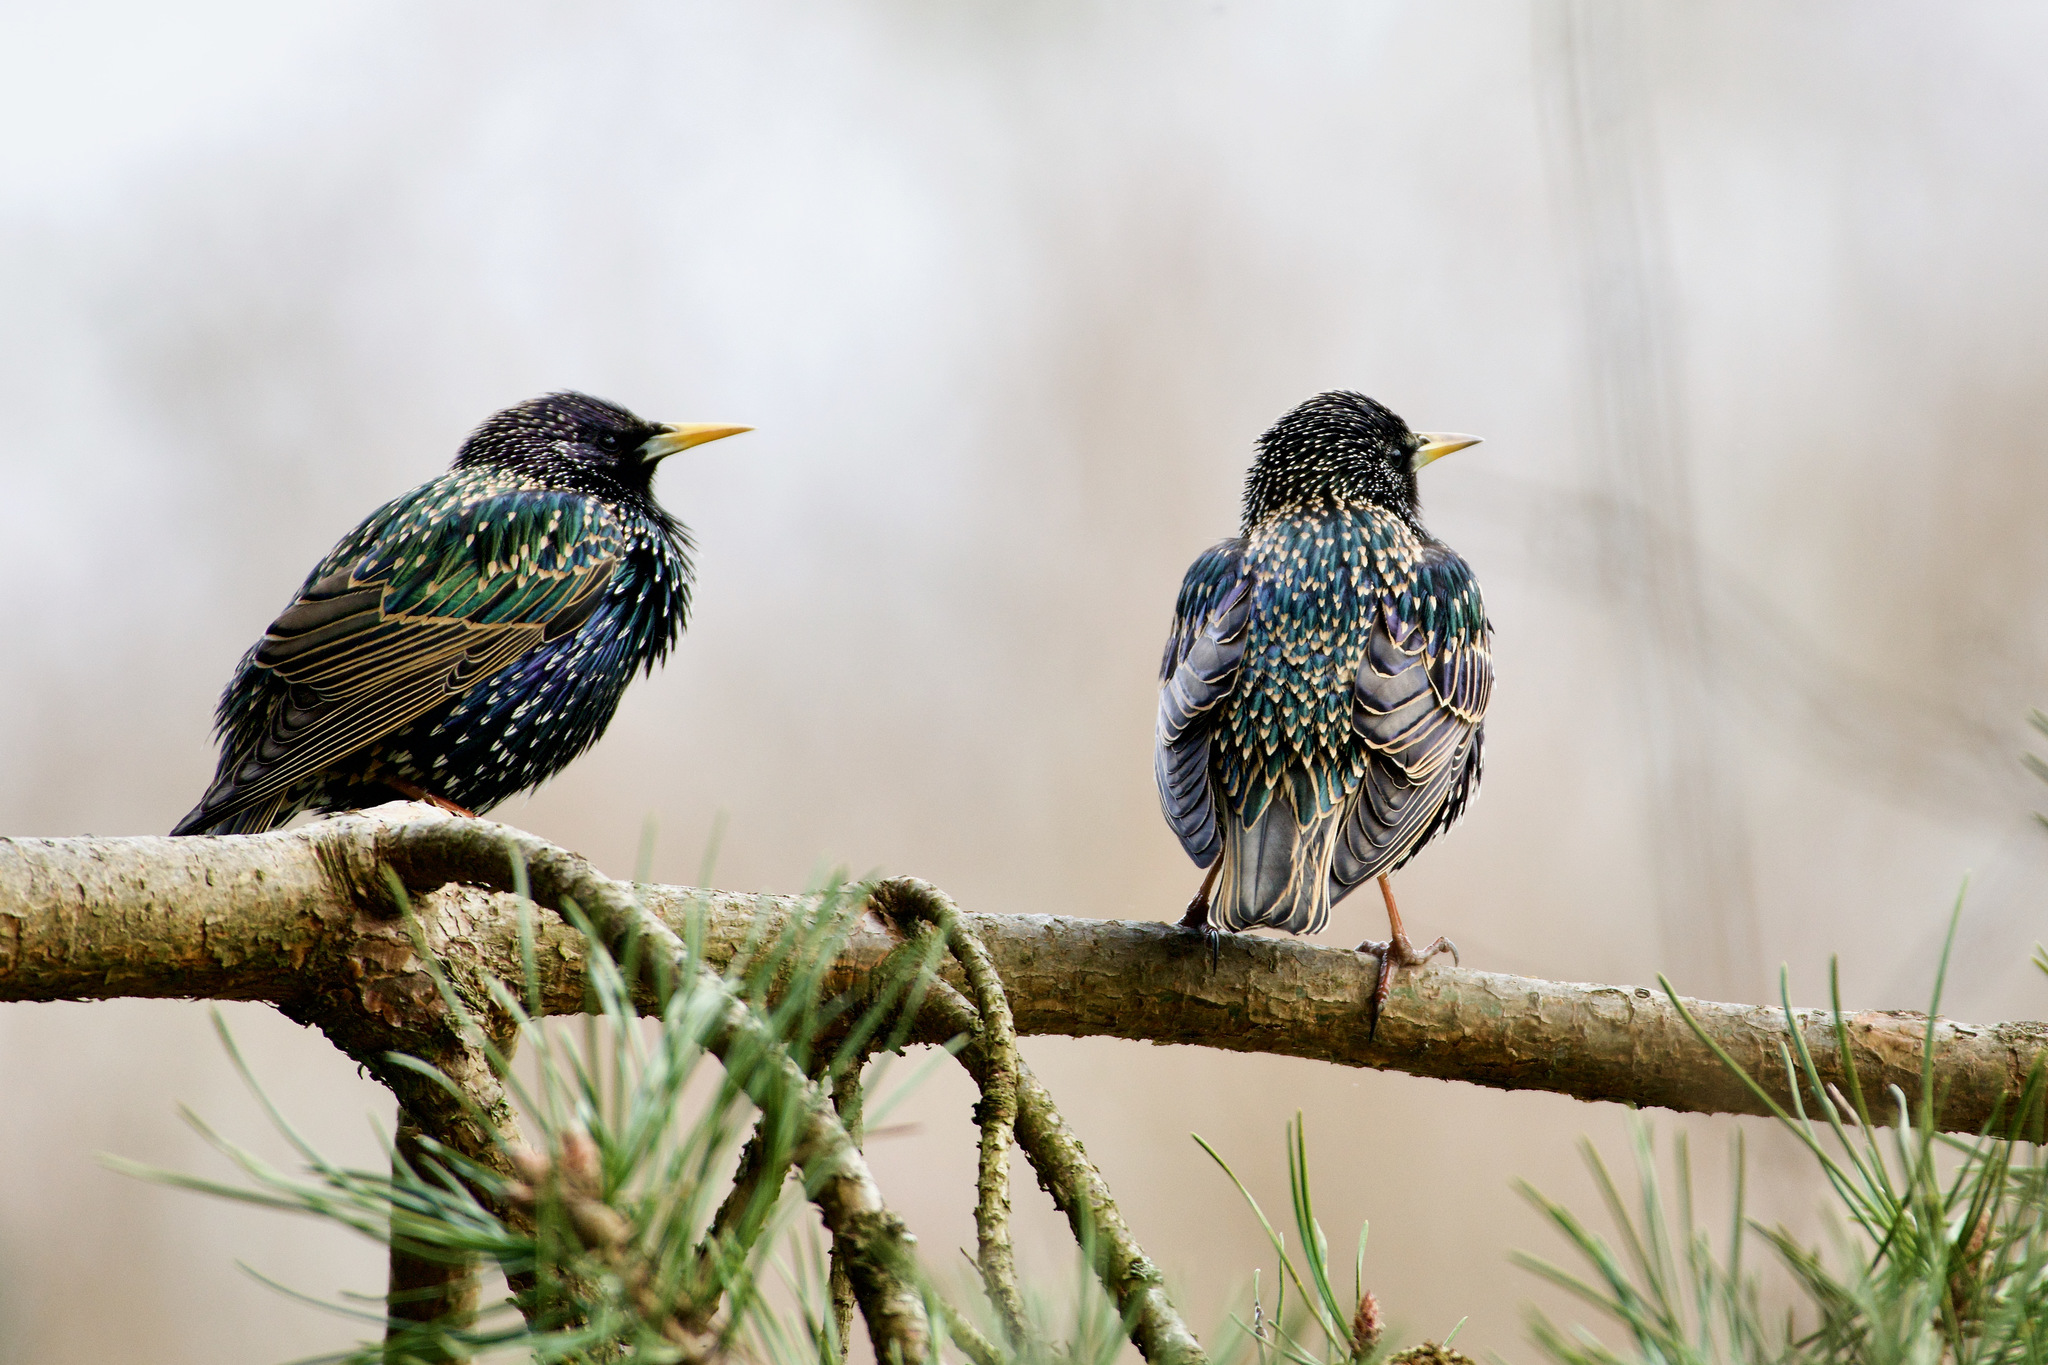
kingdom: Animalia
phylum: Chordata
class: Aves
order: Passeriformes
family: Sturnidae
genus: Sturnus
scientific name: Sturnus vulgaris
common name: Common starling
